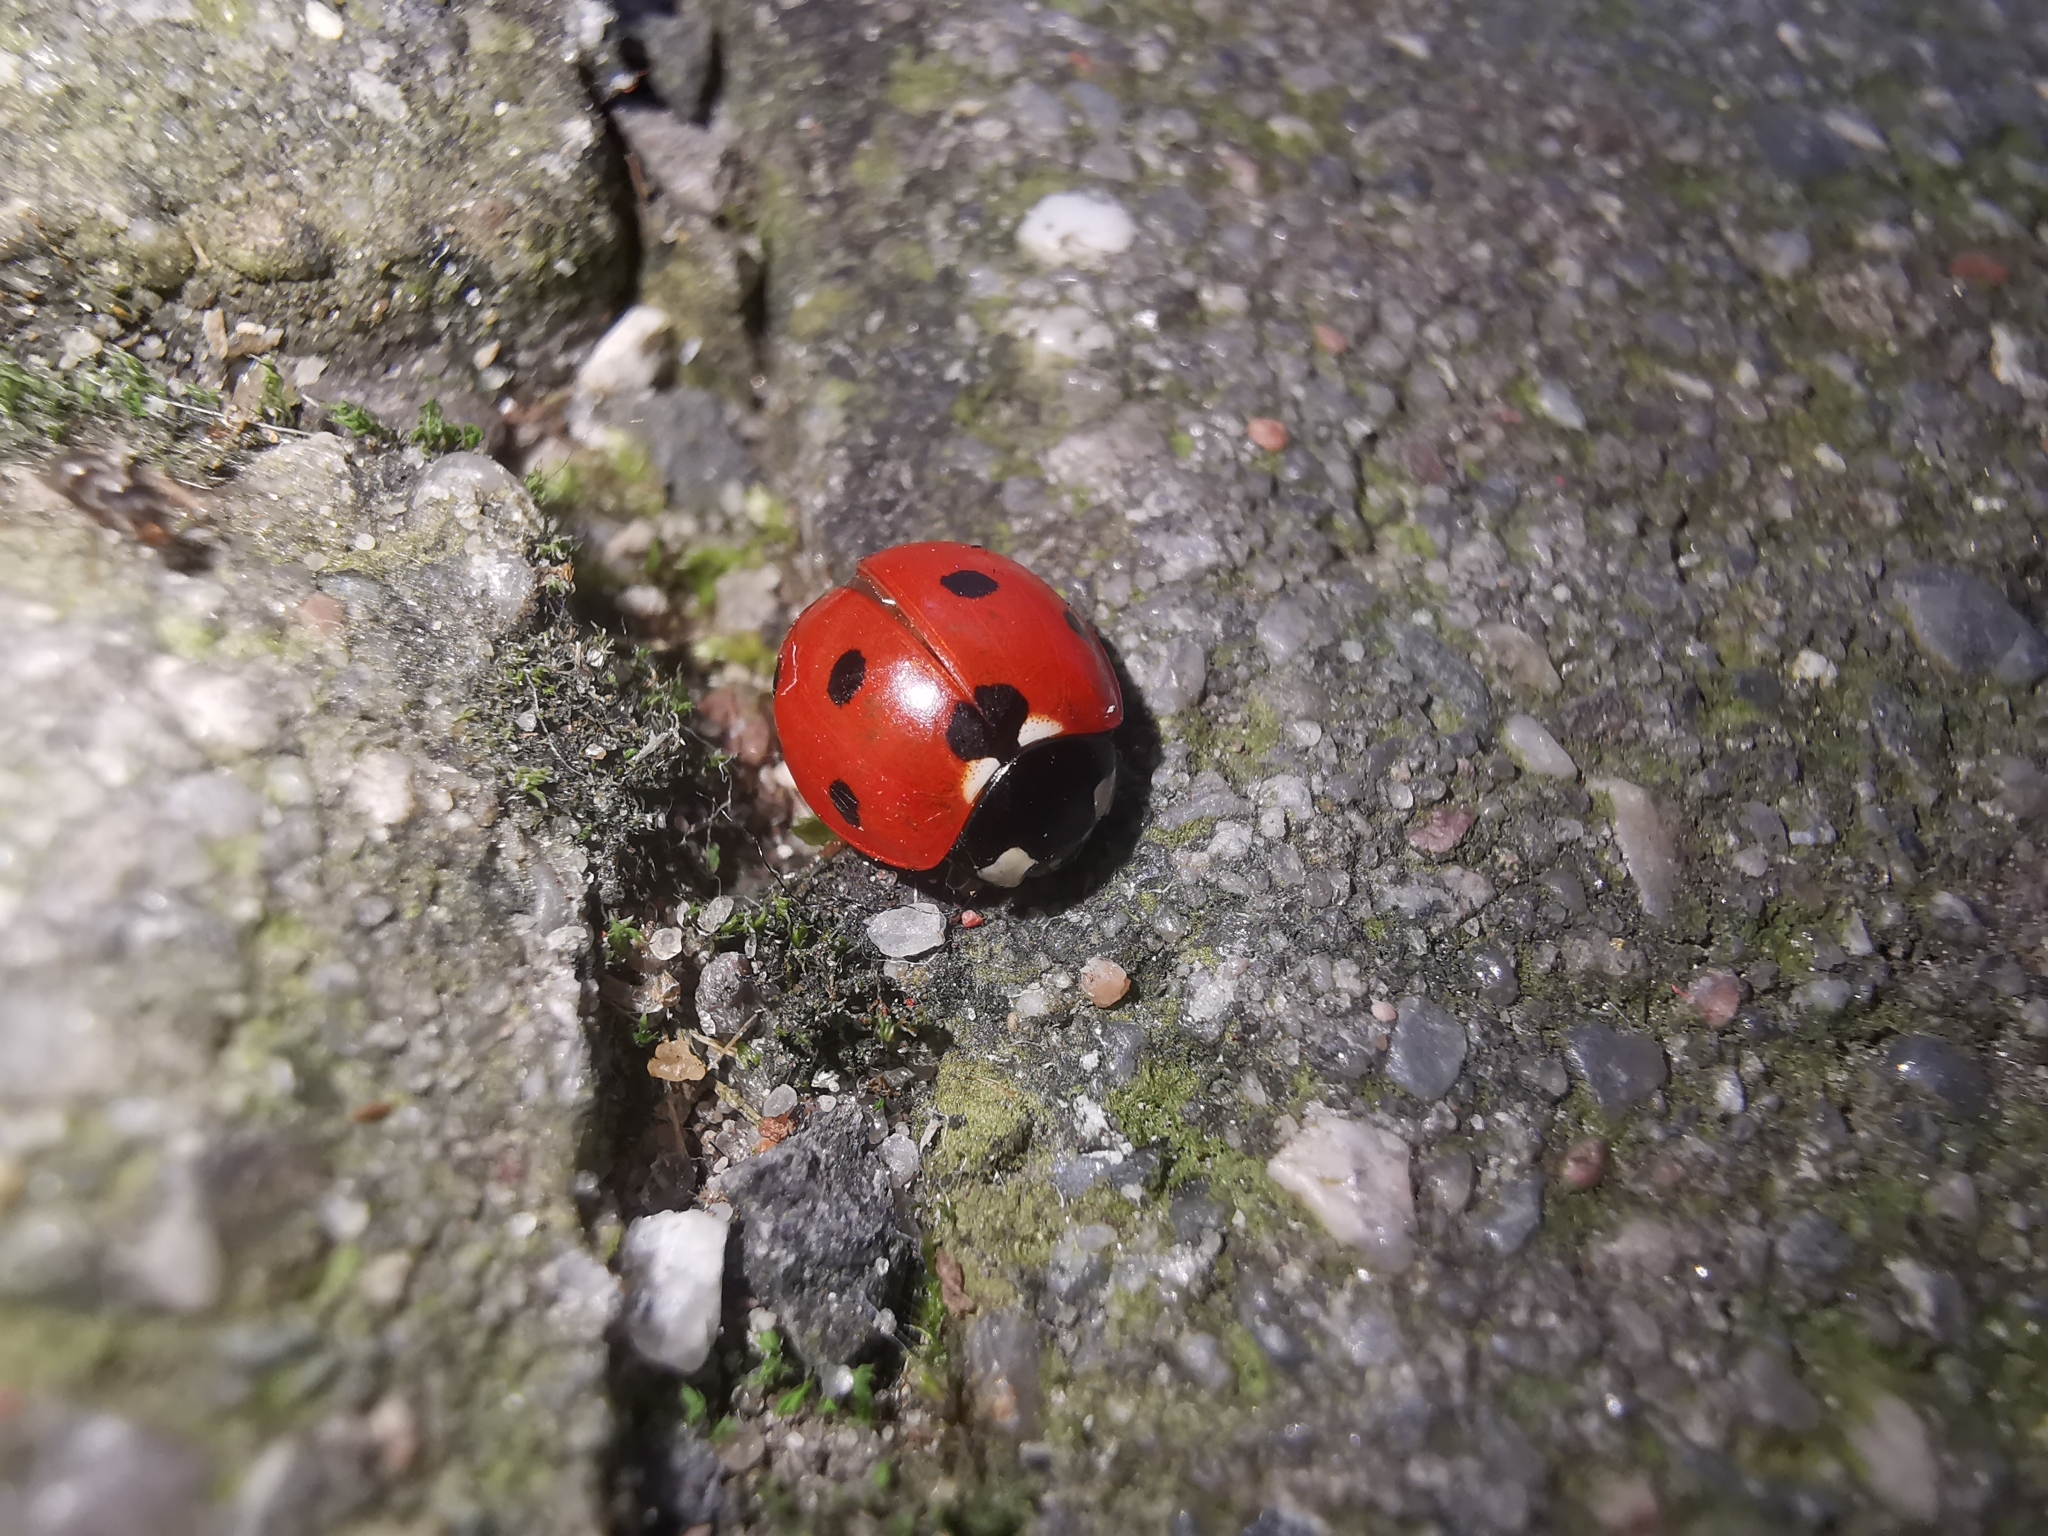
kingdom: Animalia
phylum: Arthropoda
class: Insecta
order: Coleoptera
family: Coccinellidae
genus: Coccinella
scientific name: Coccinella septempunctata
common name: Sevenspotted lady beetle
